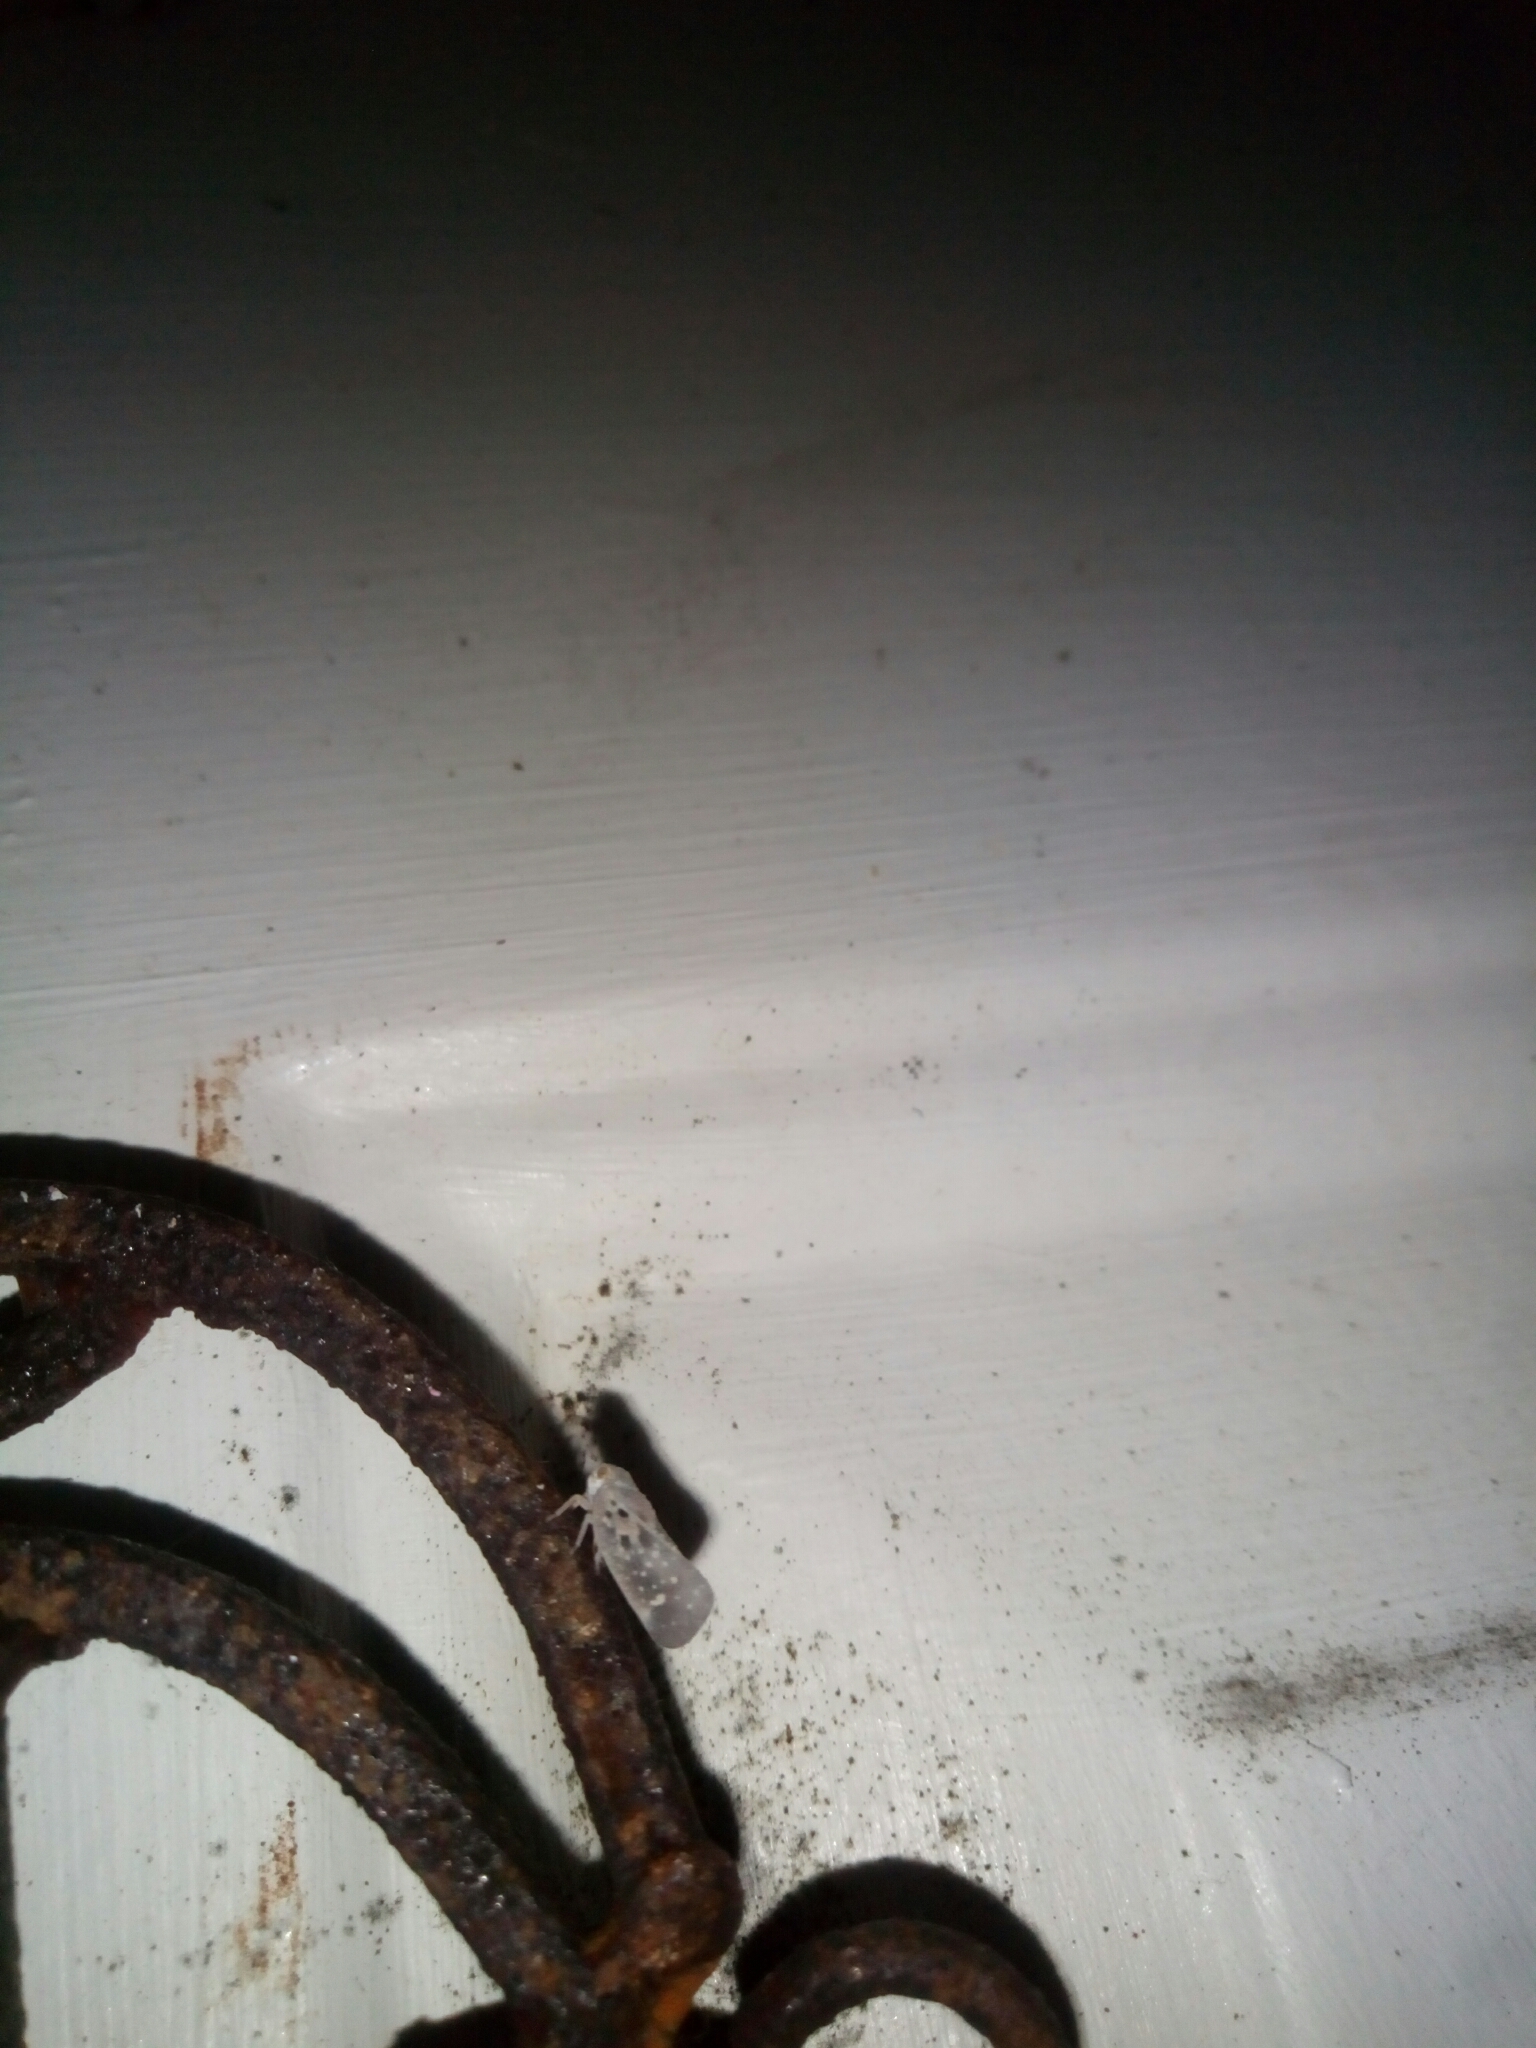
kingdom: Animalia
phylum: Arthropoda
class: Insecta
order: Hemiptera
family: Flatidae
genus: Metcalfa
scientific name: Metcalfa pruinosa
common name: Citrus flatid planthopper
